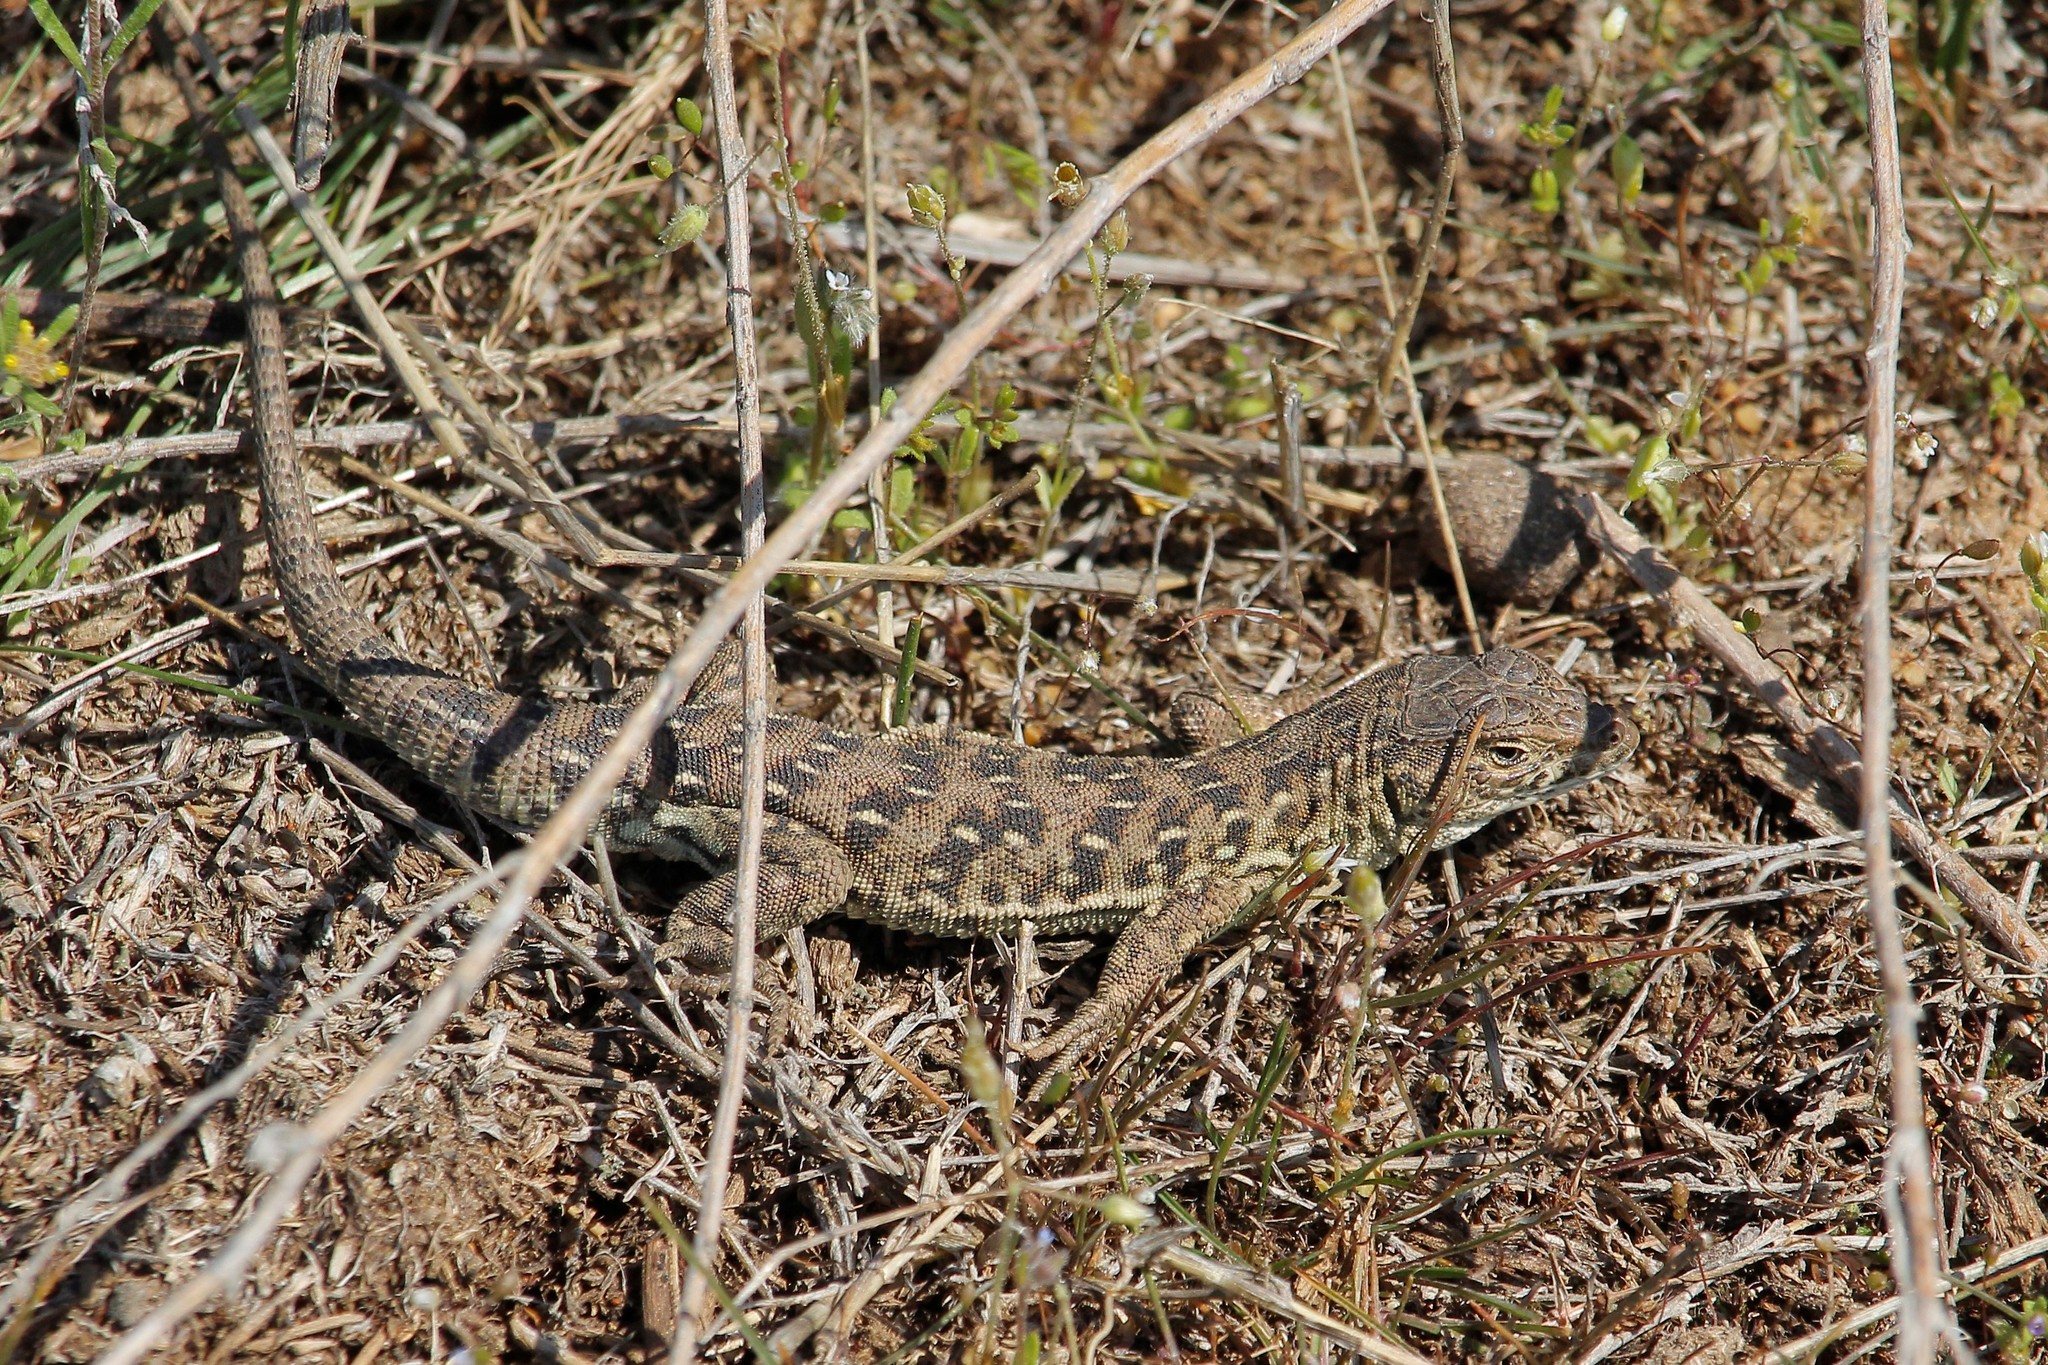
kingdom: Animalia
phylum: Chordata
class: Squamata
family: Lacertidae
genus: Eremias
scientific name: Eremias arguta
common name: Racerunner
